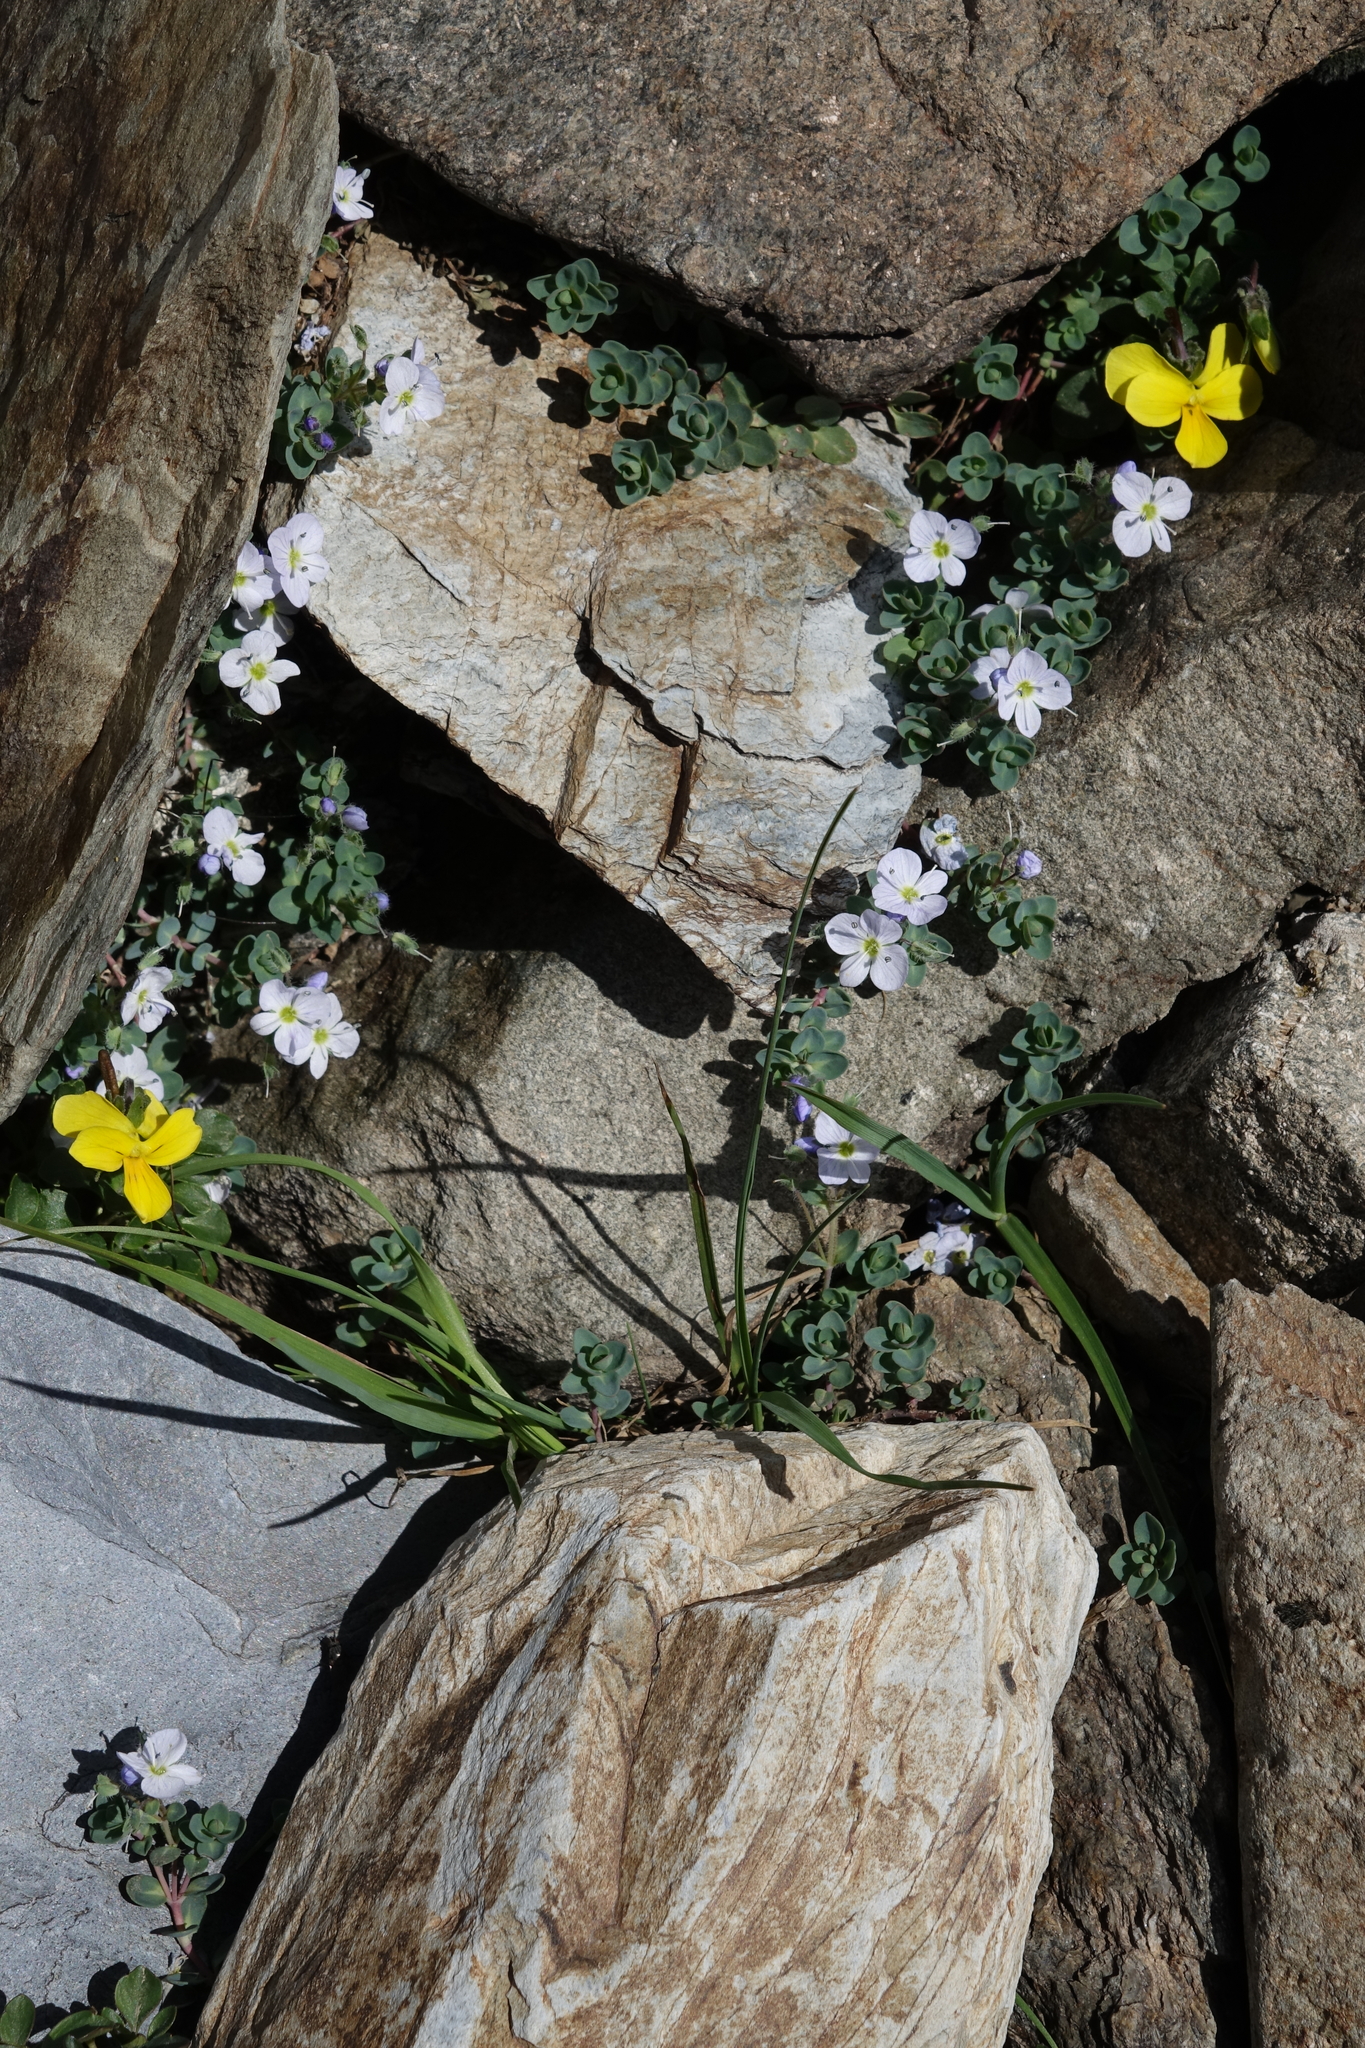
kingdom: Plantae
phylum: Tracheophyta
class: Magnoliopsida
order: Lamiales
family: Plantaginaceae
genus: Veronica
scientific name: Veronica telephiifolia
